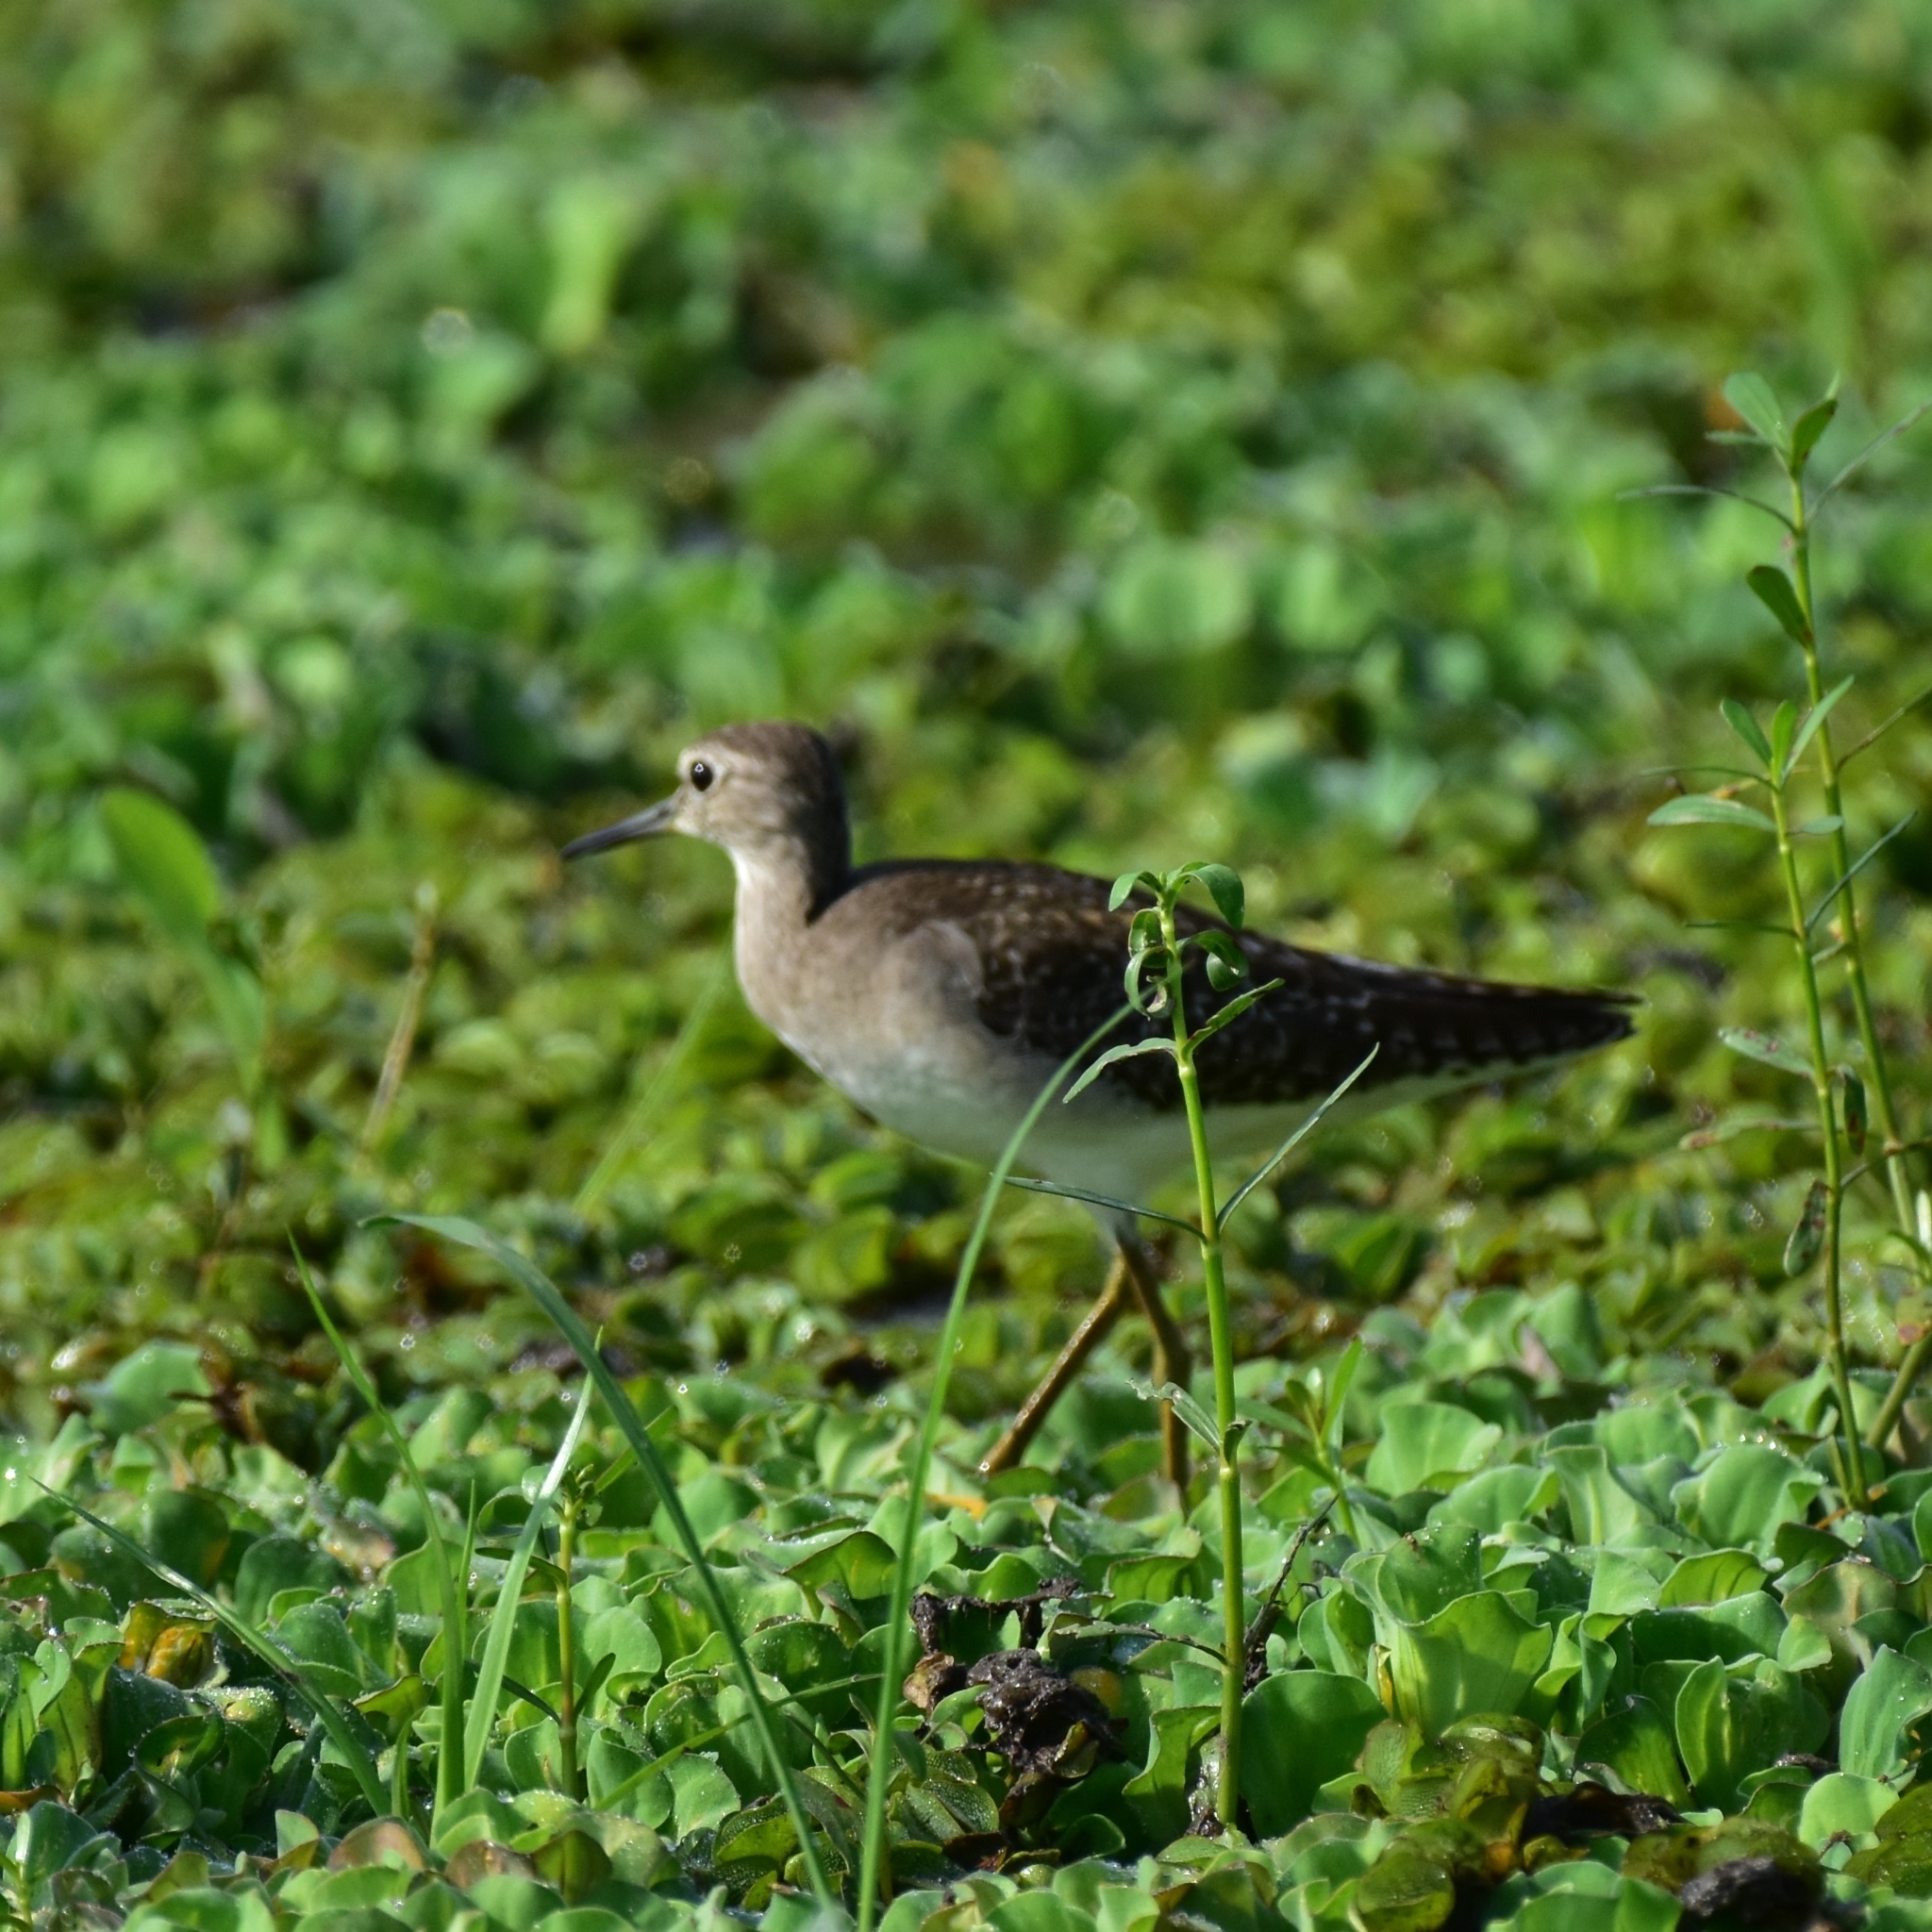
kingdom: Animalia
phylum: Chordata
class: Aves
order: Charadriiformes
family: Scolopacidae
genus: Tringa
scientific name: Tringa glareola
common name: Wood sandpiper
